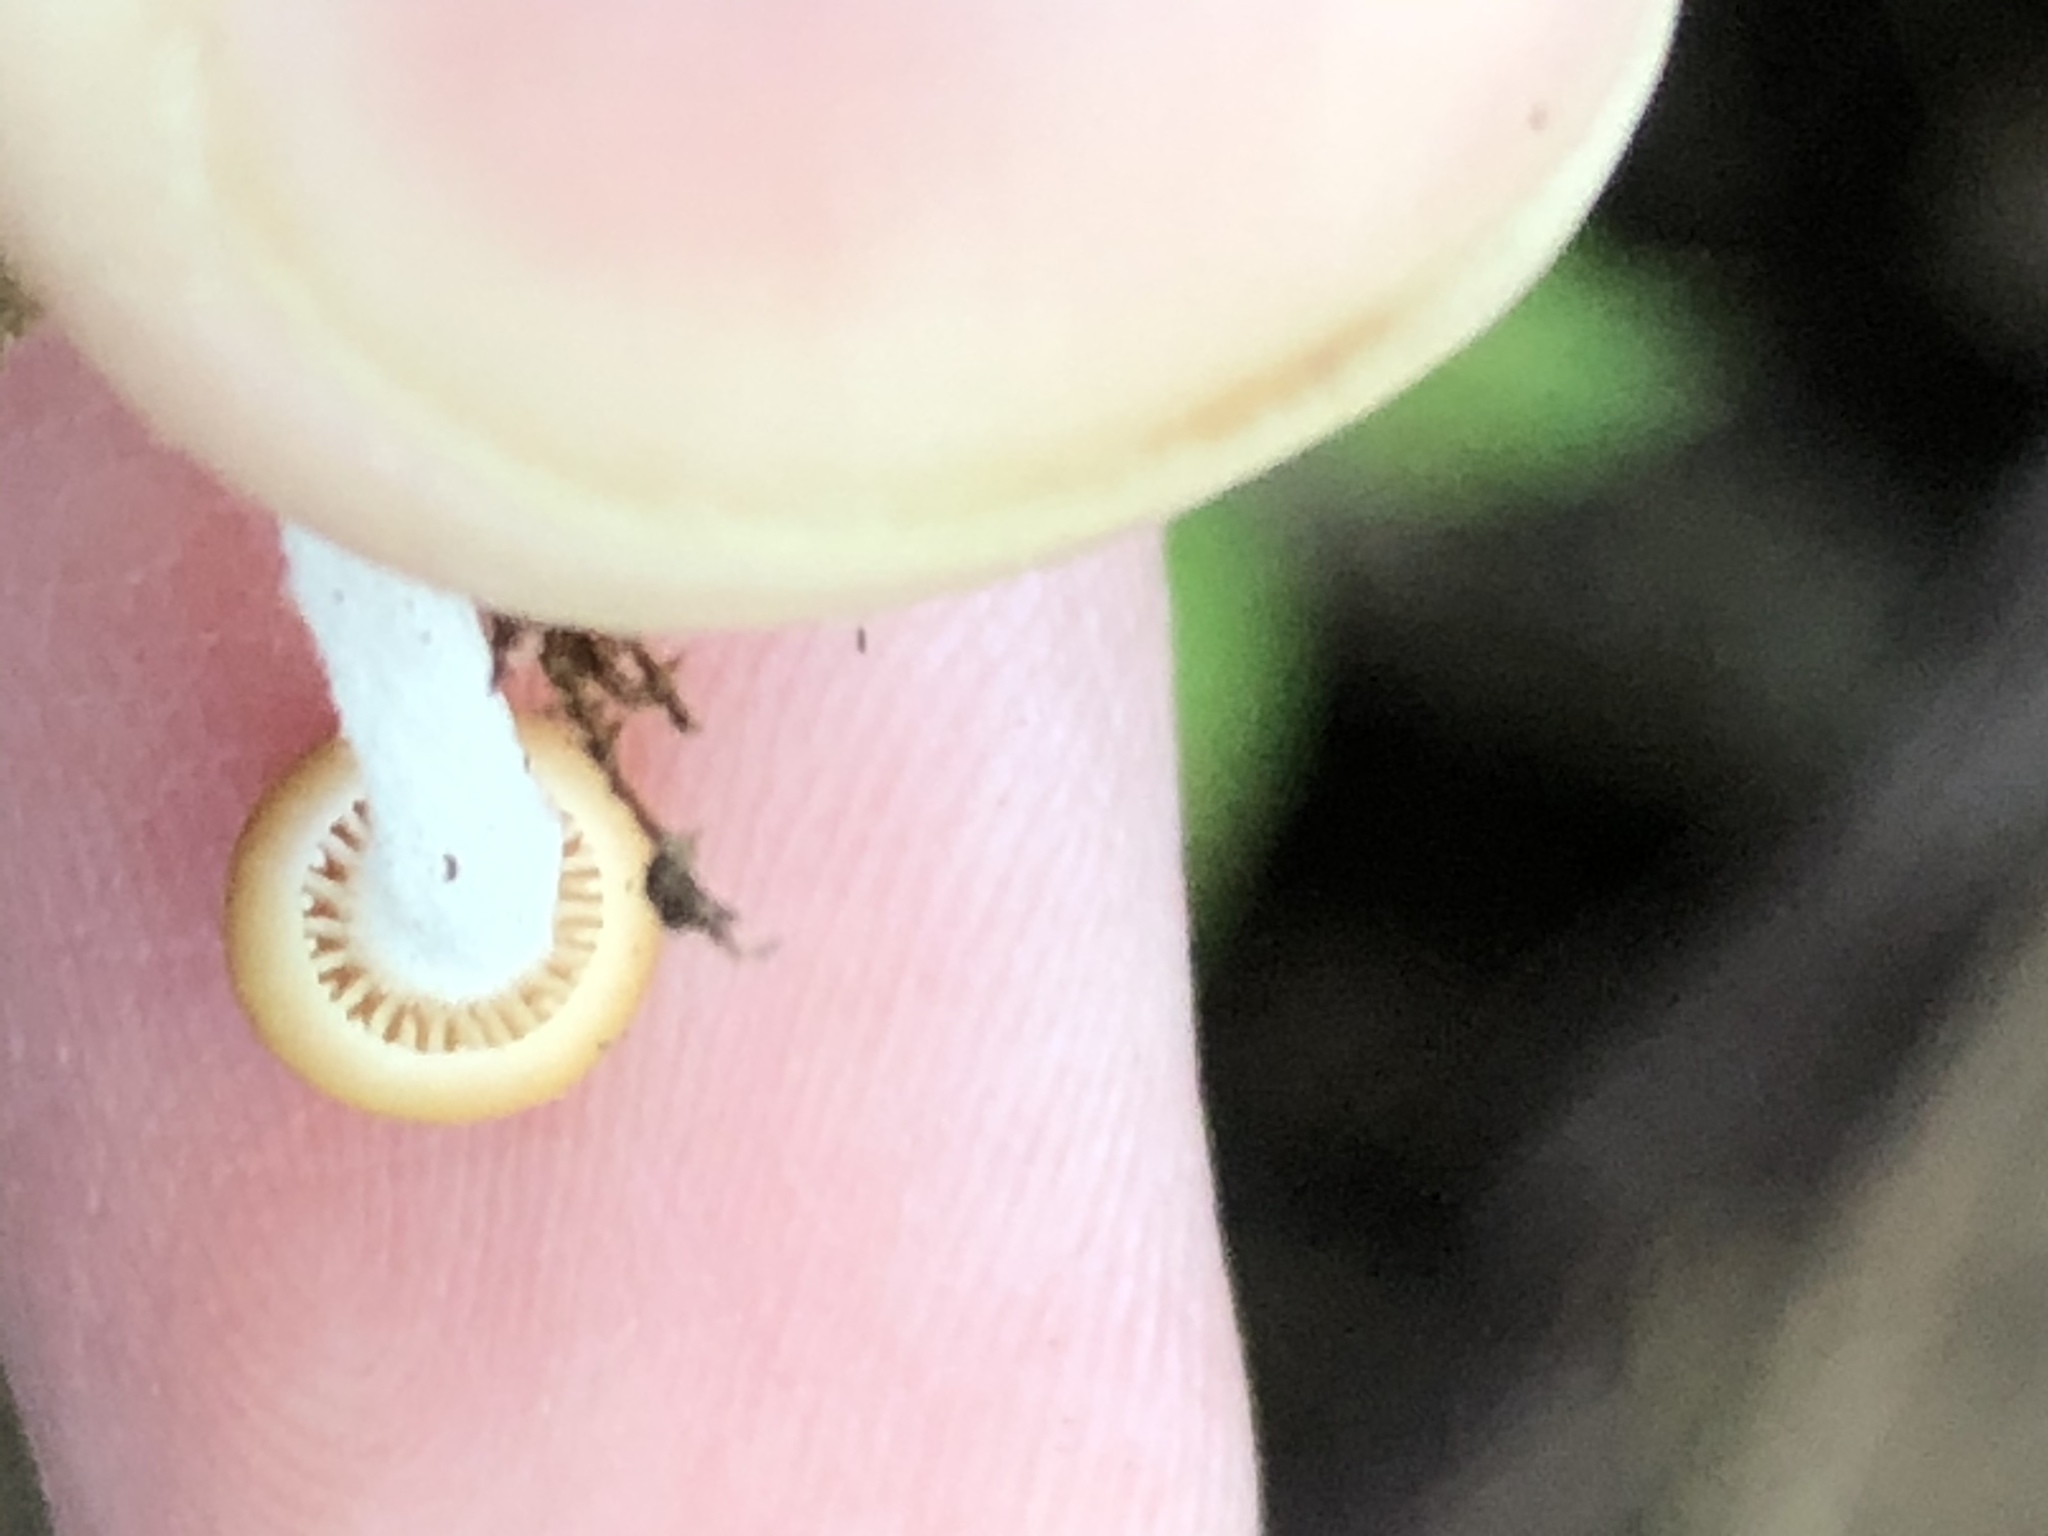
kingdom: Fungi
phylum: Basidiomycota
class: Agaricomycetes
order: Agaricales
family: Physalacriaceae
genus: Rhizomarasmius
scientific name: Rhizomarasmius pyrrhocephalus
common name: Hairy long stem marasmius
